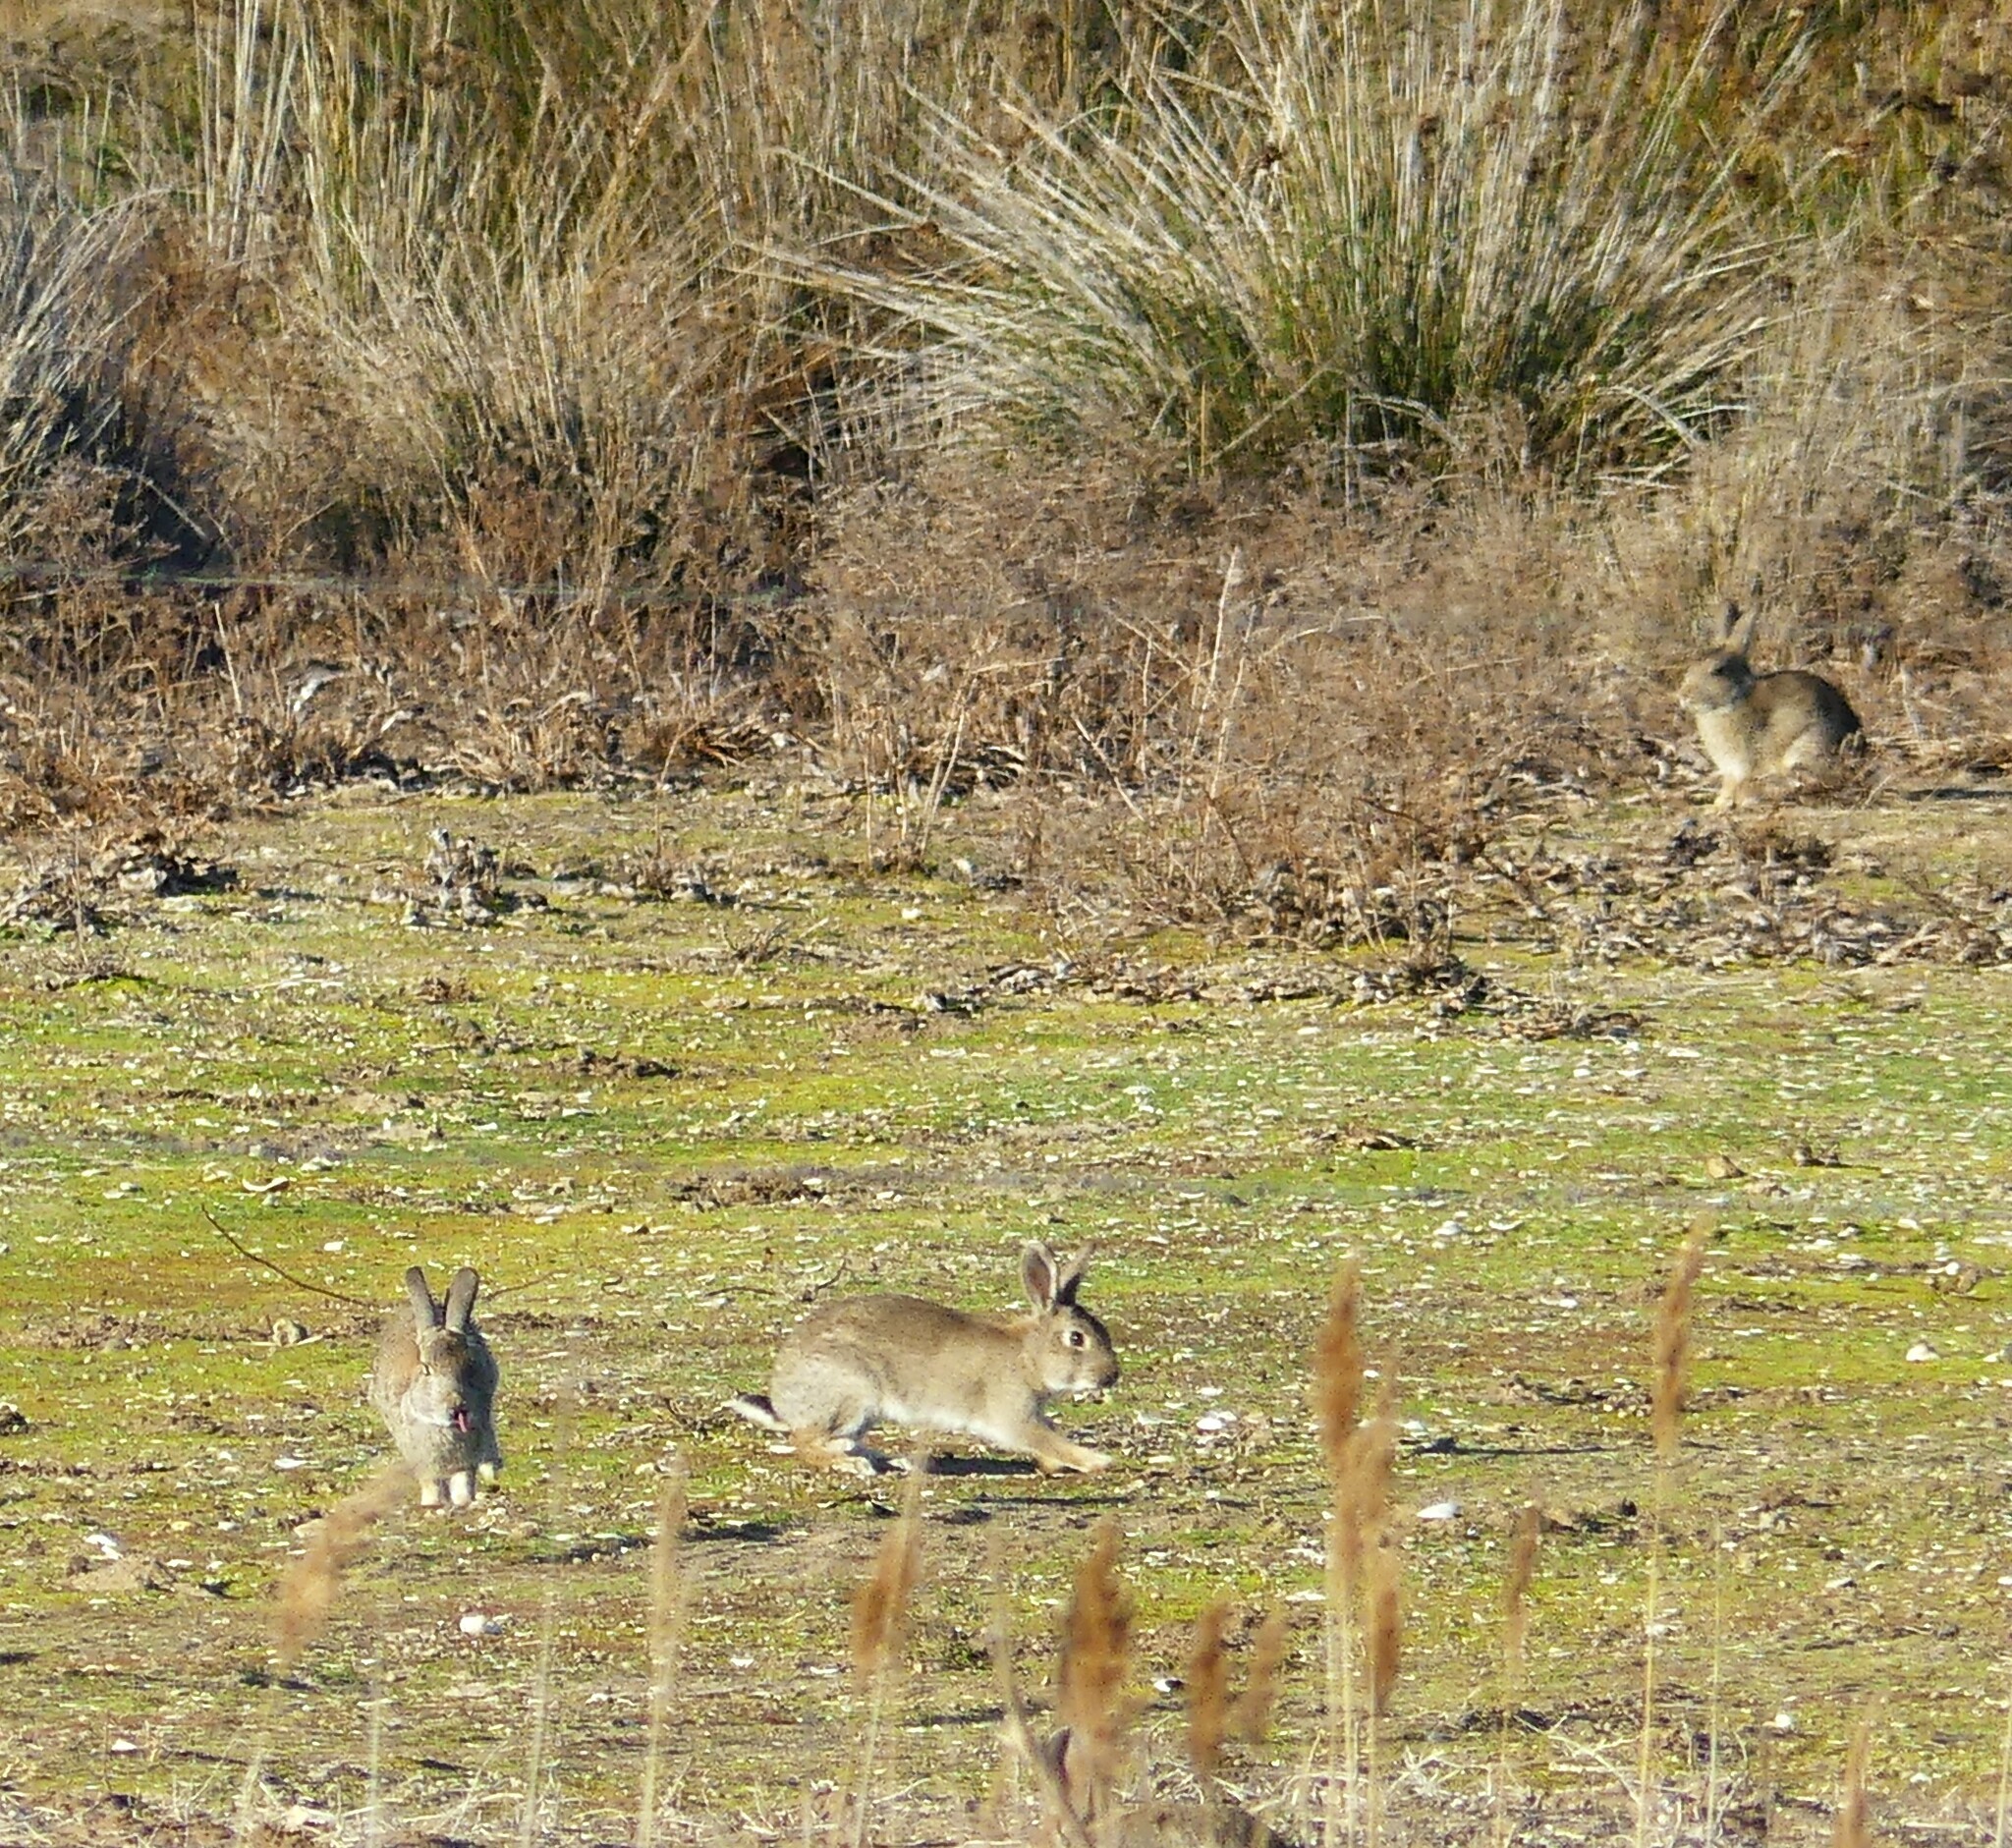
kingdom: Animalia
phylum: Chordata
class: Mammalia
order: Lagomorpha
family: Leporidae
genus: Oryctolagus
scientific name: Oryctolagus cuniculus
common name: European rabbit
